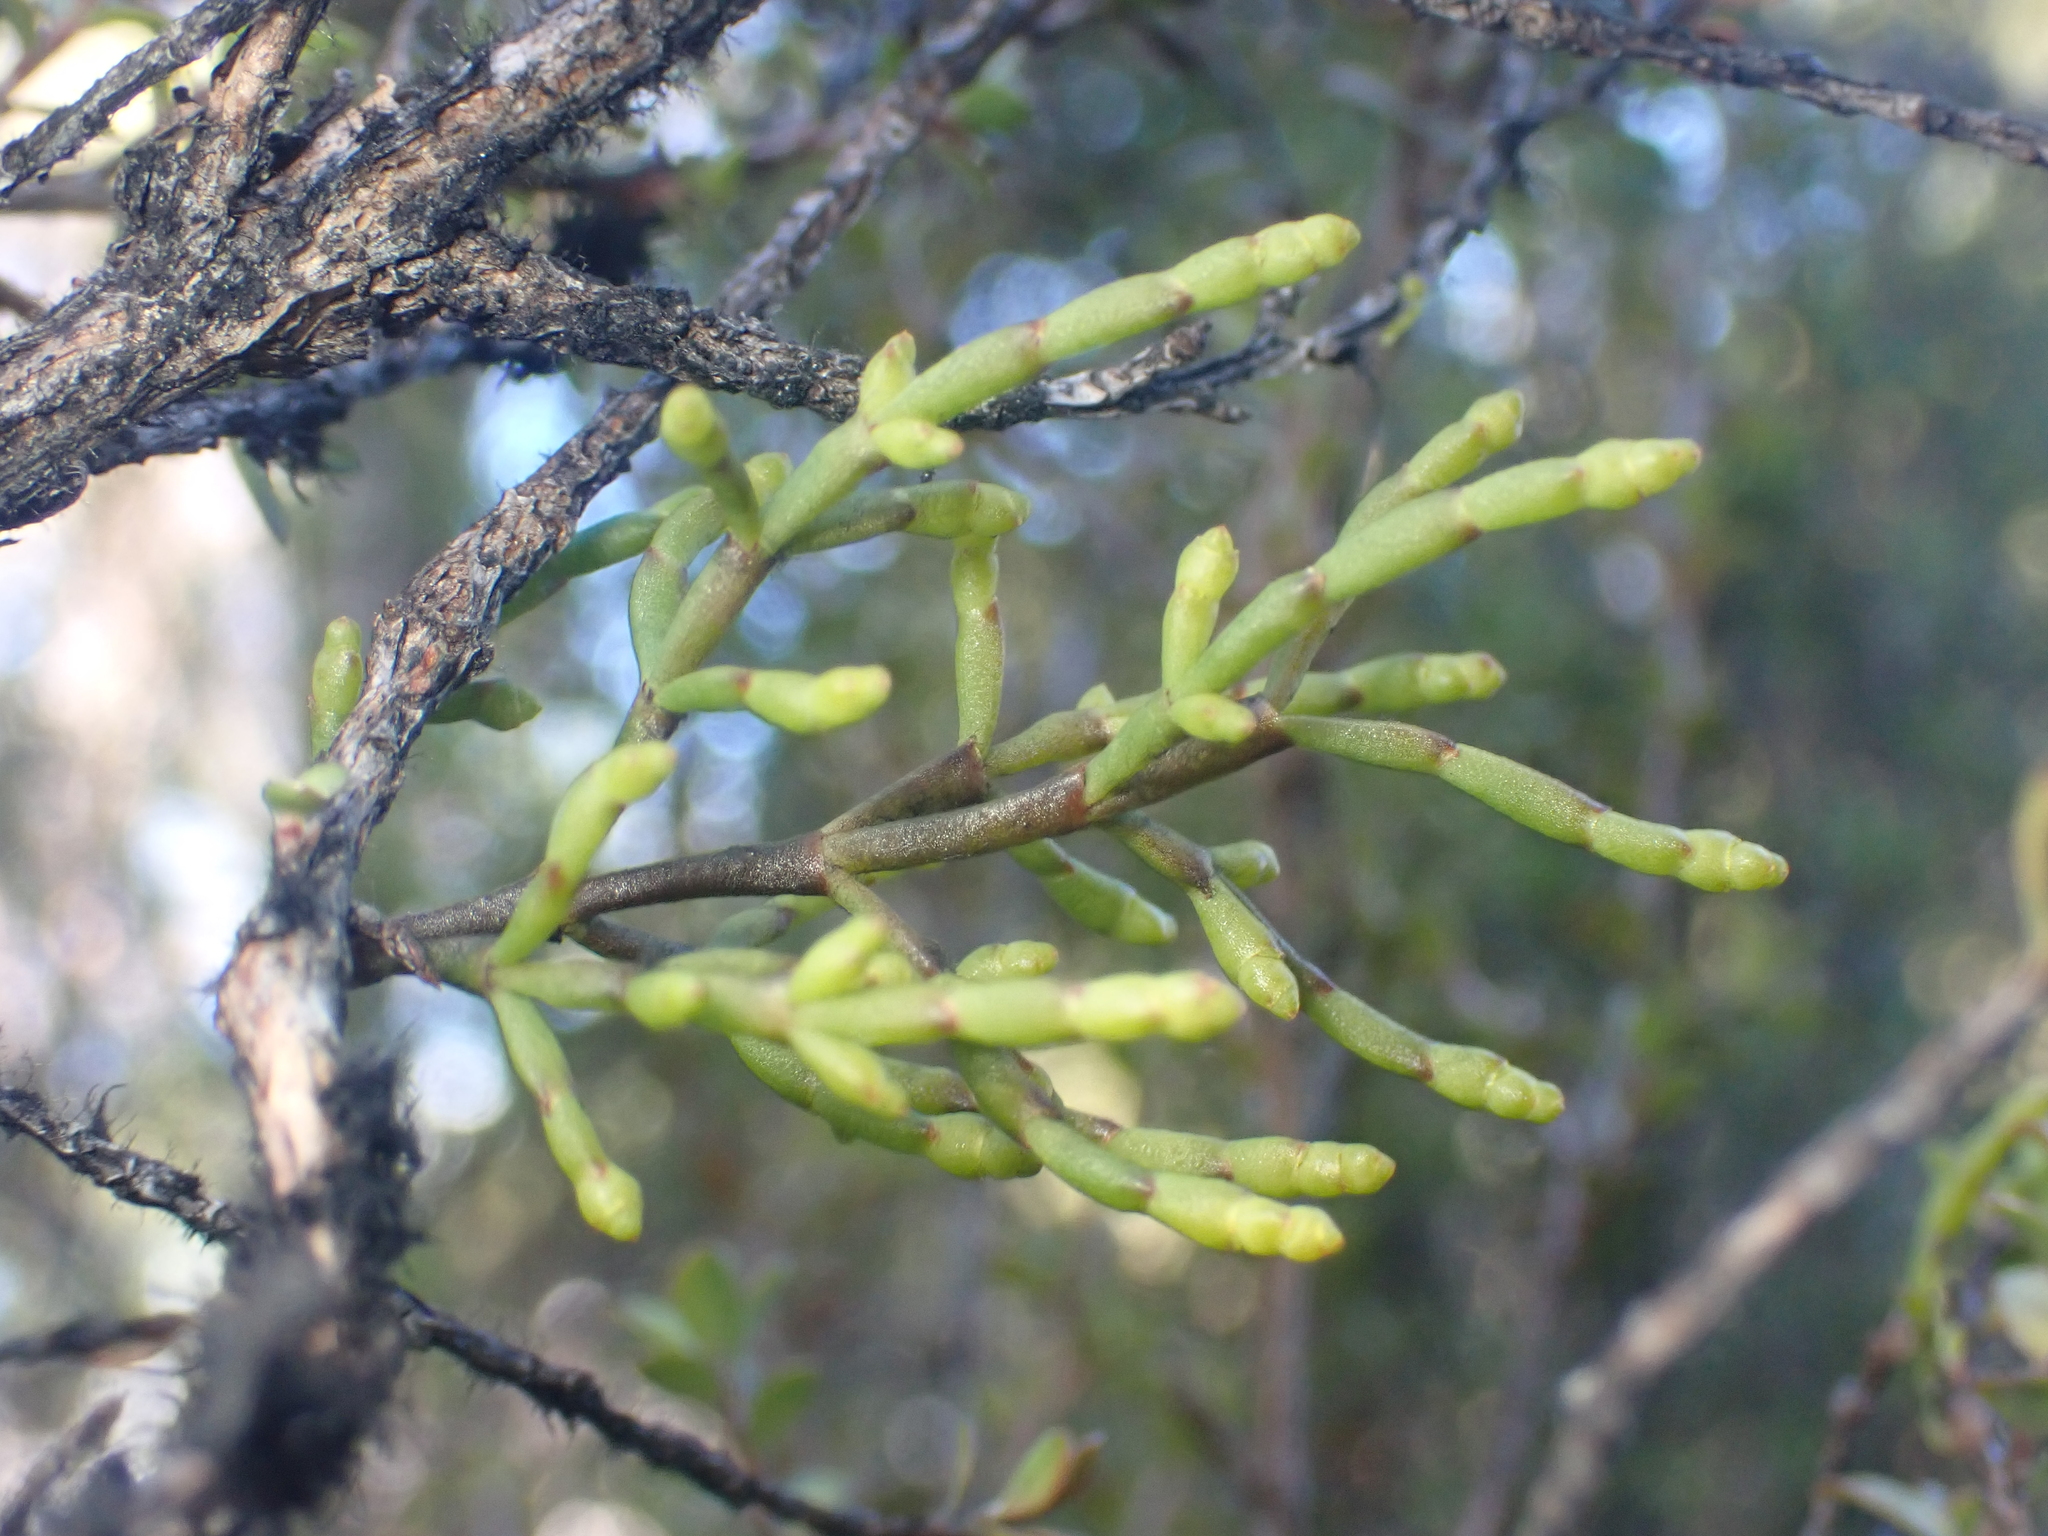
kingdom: Plantae
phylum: Tracheophyta
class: Magnoliopsida
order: Santalales
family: Viscaceae
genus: Korthalsella
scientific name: Korthalsella salicornioides
